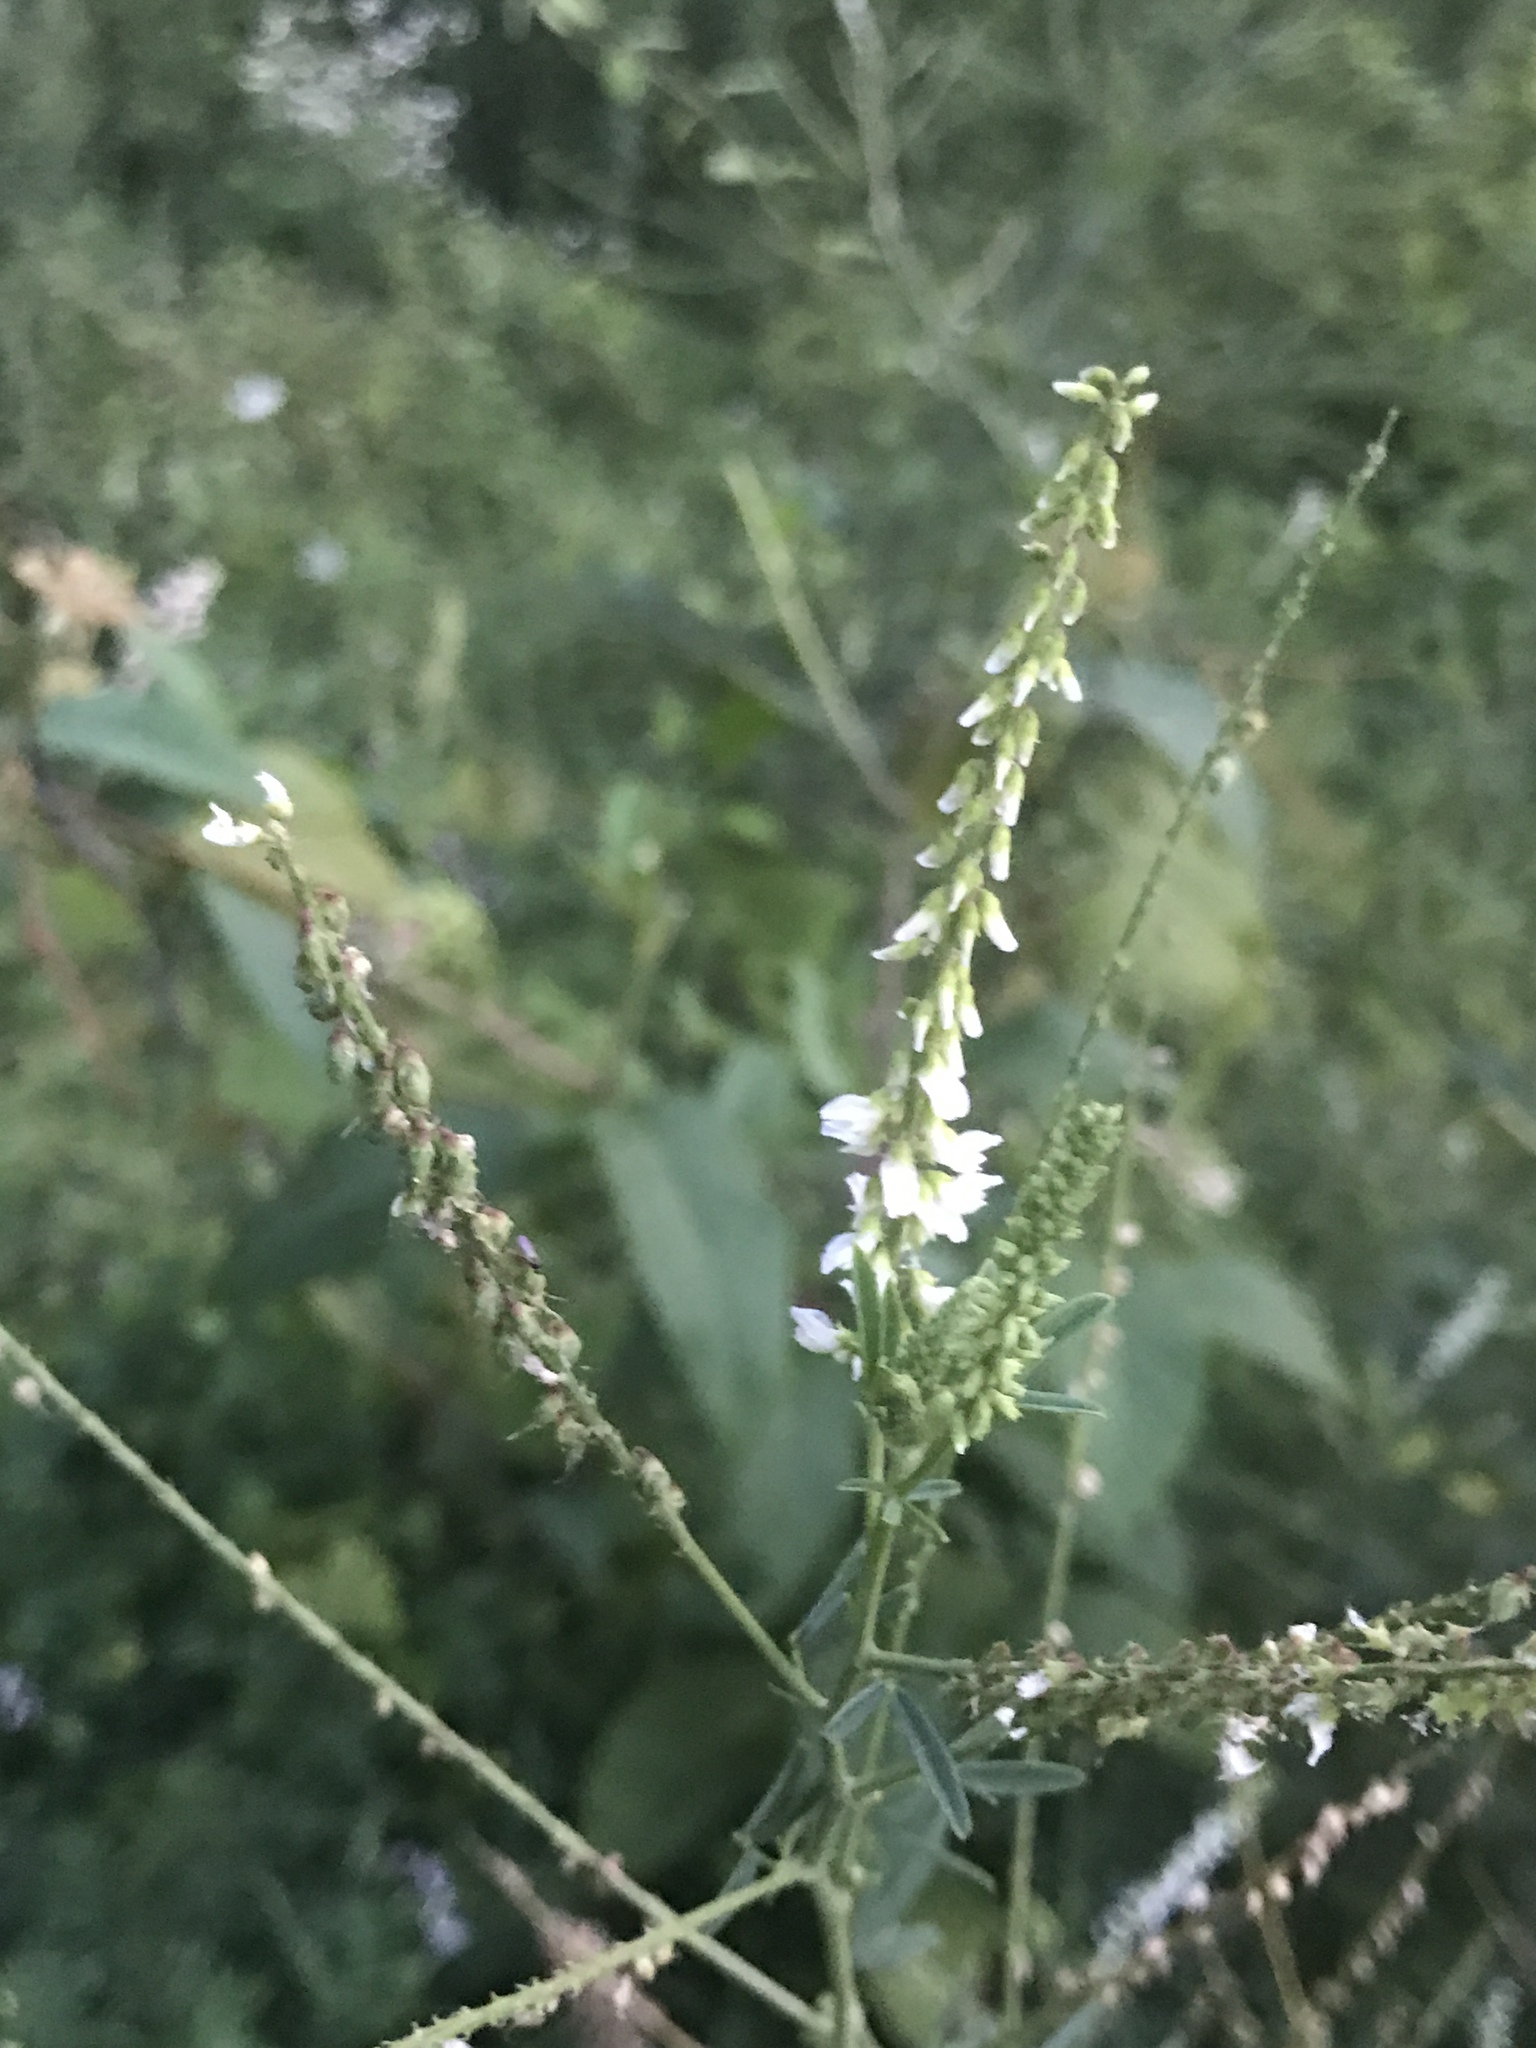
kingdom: Plantae
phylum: Tracheophyta
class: Magnoliopsida
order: Fabales
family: Fabaceae
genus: Melilotus
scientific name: Melilotus albus
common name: White melilot
